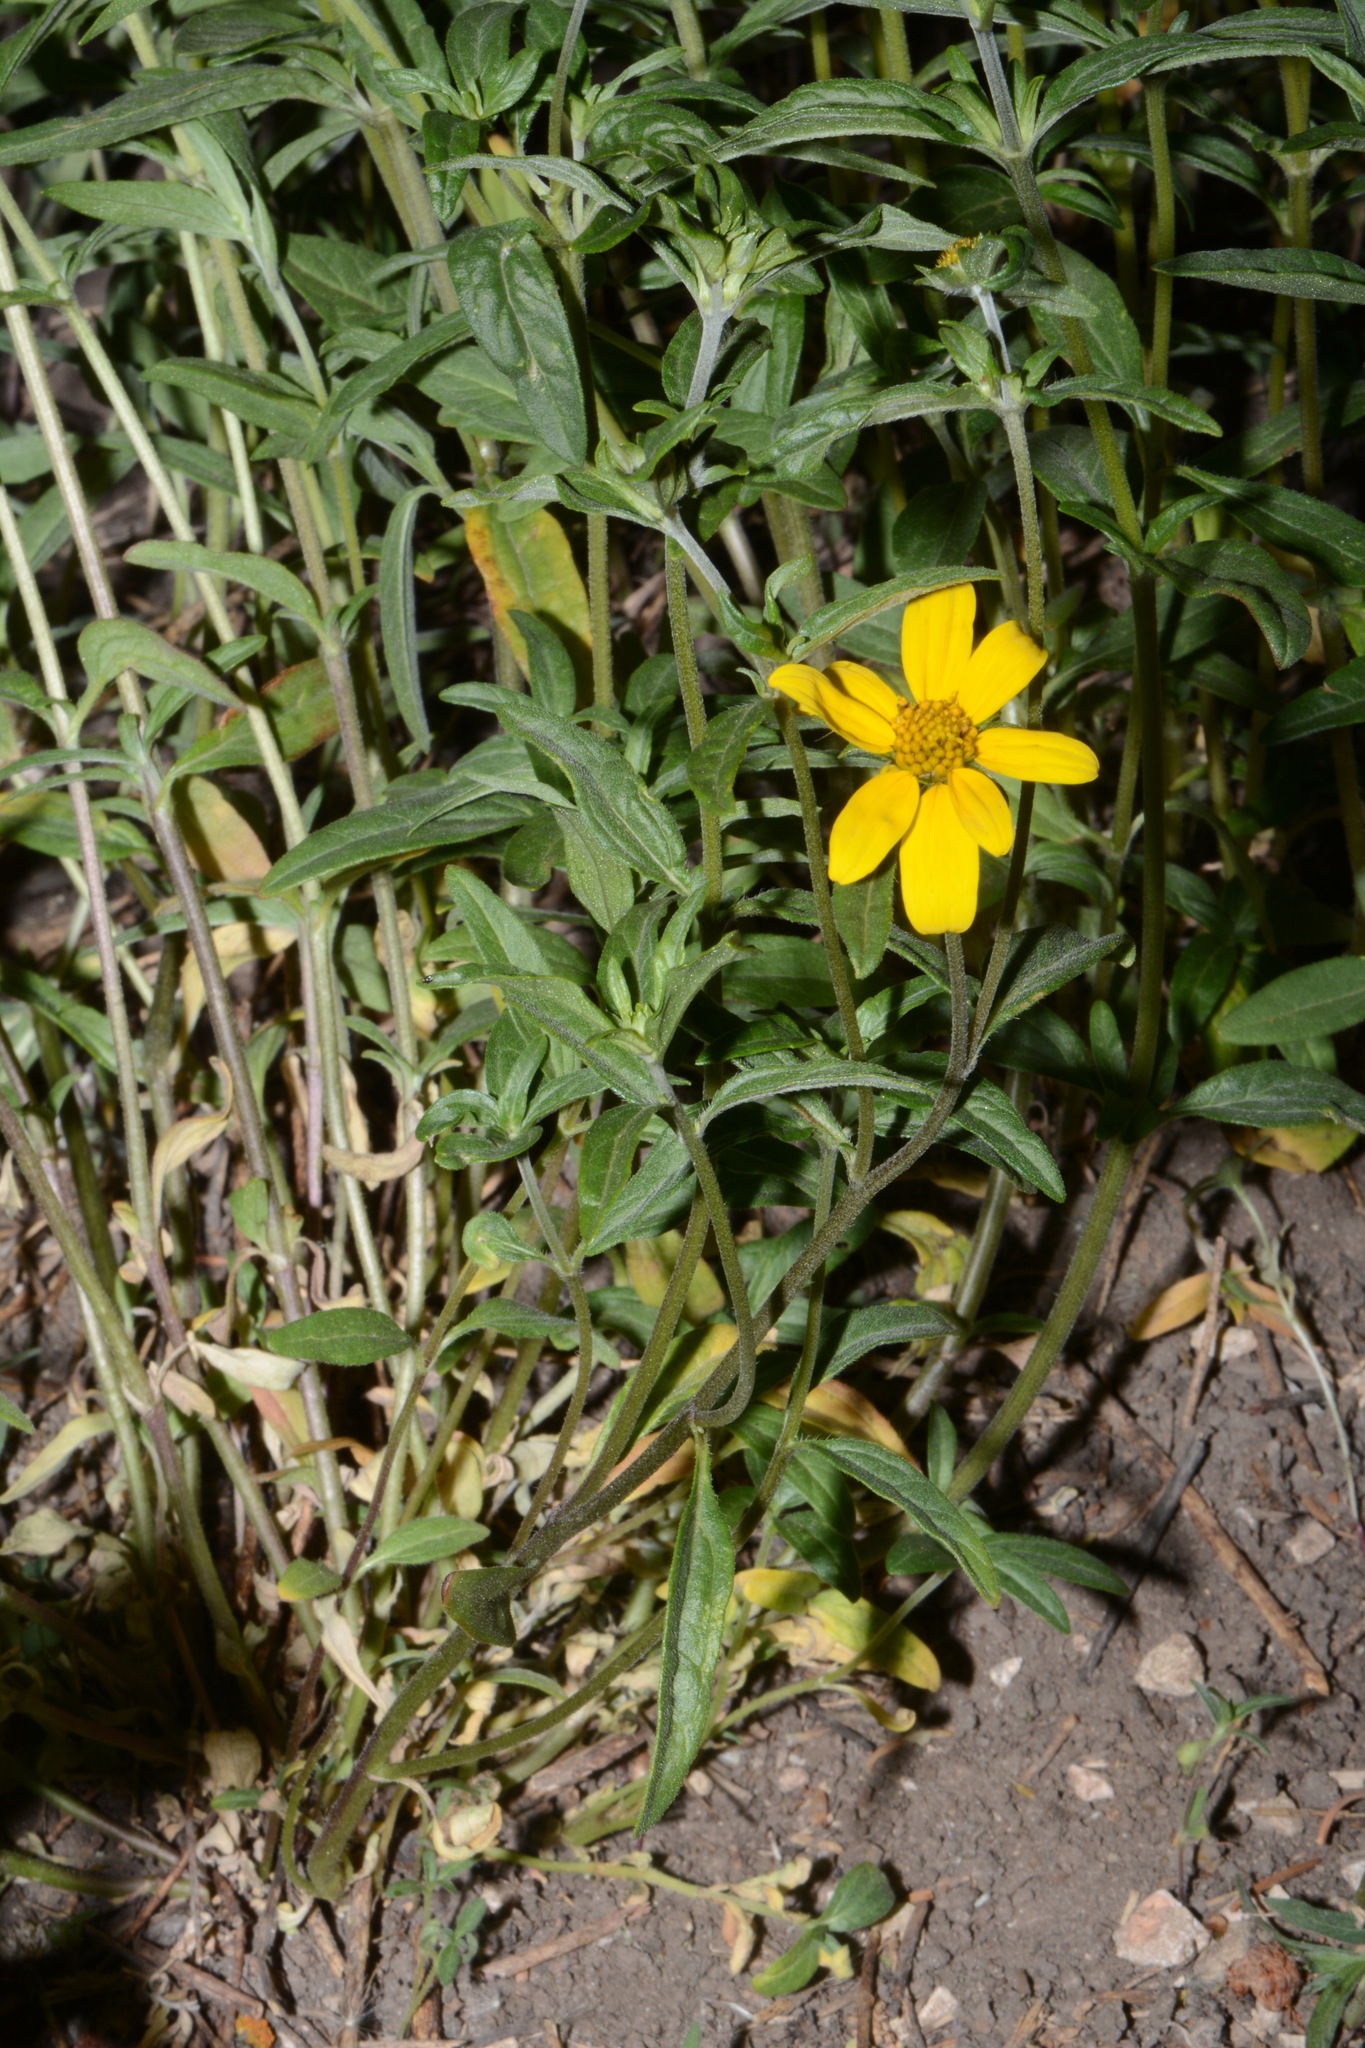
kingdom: Plantae
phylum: Tracheophyta
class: Magnoliopsida
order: Asterales
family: Asteraceae
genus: Heliomeris
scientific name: Heliomeris multiflora
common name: Showy goldeneye
